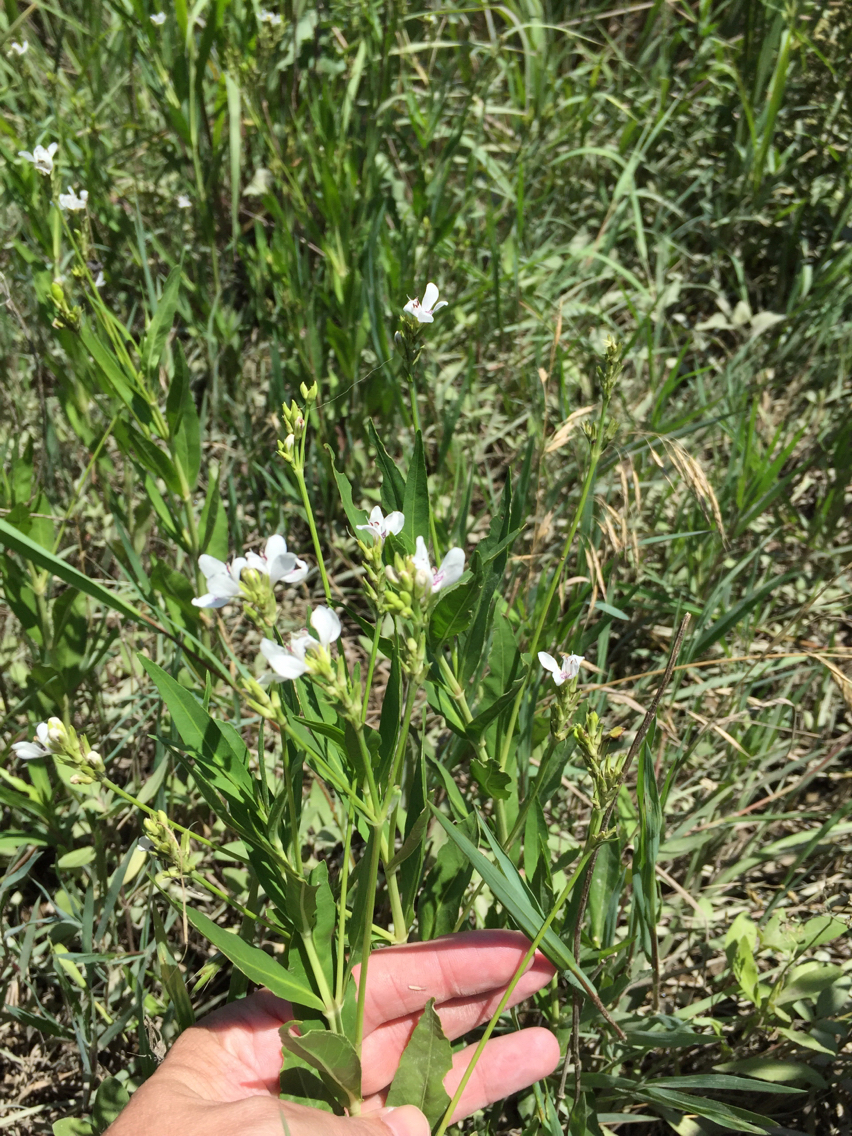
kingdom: Plantae
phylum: Tracheophyta
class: Magnoliopsida
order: Lamiales
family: Acanthaceae
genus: Dianthera
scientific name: Dianthera americana
